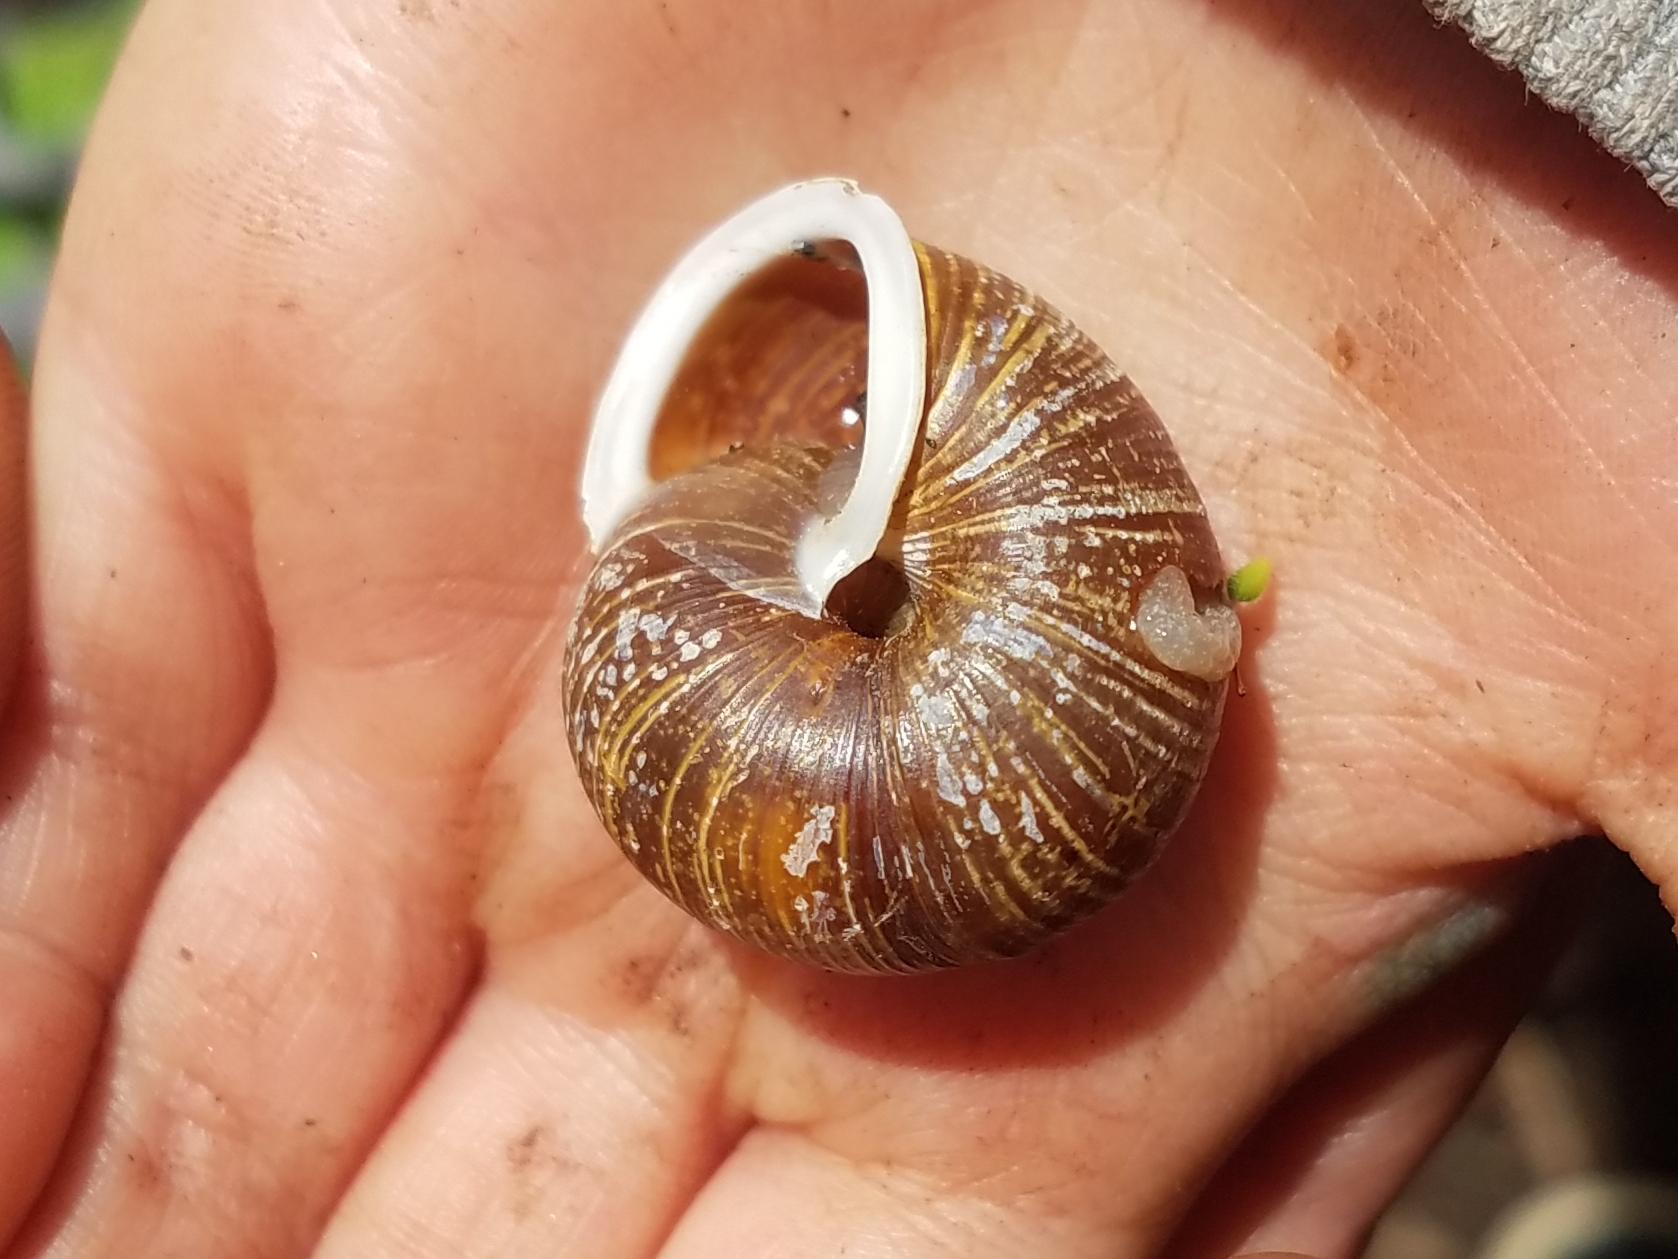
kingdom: Animalia
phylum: Mollusca
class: Gastropoda
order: Stylommatophora
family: Polygyridae
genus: Allogona
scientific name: Allogona townsendiana
